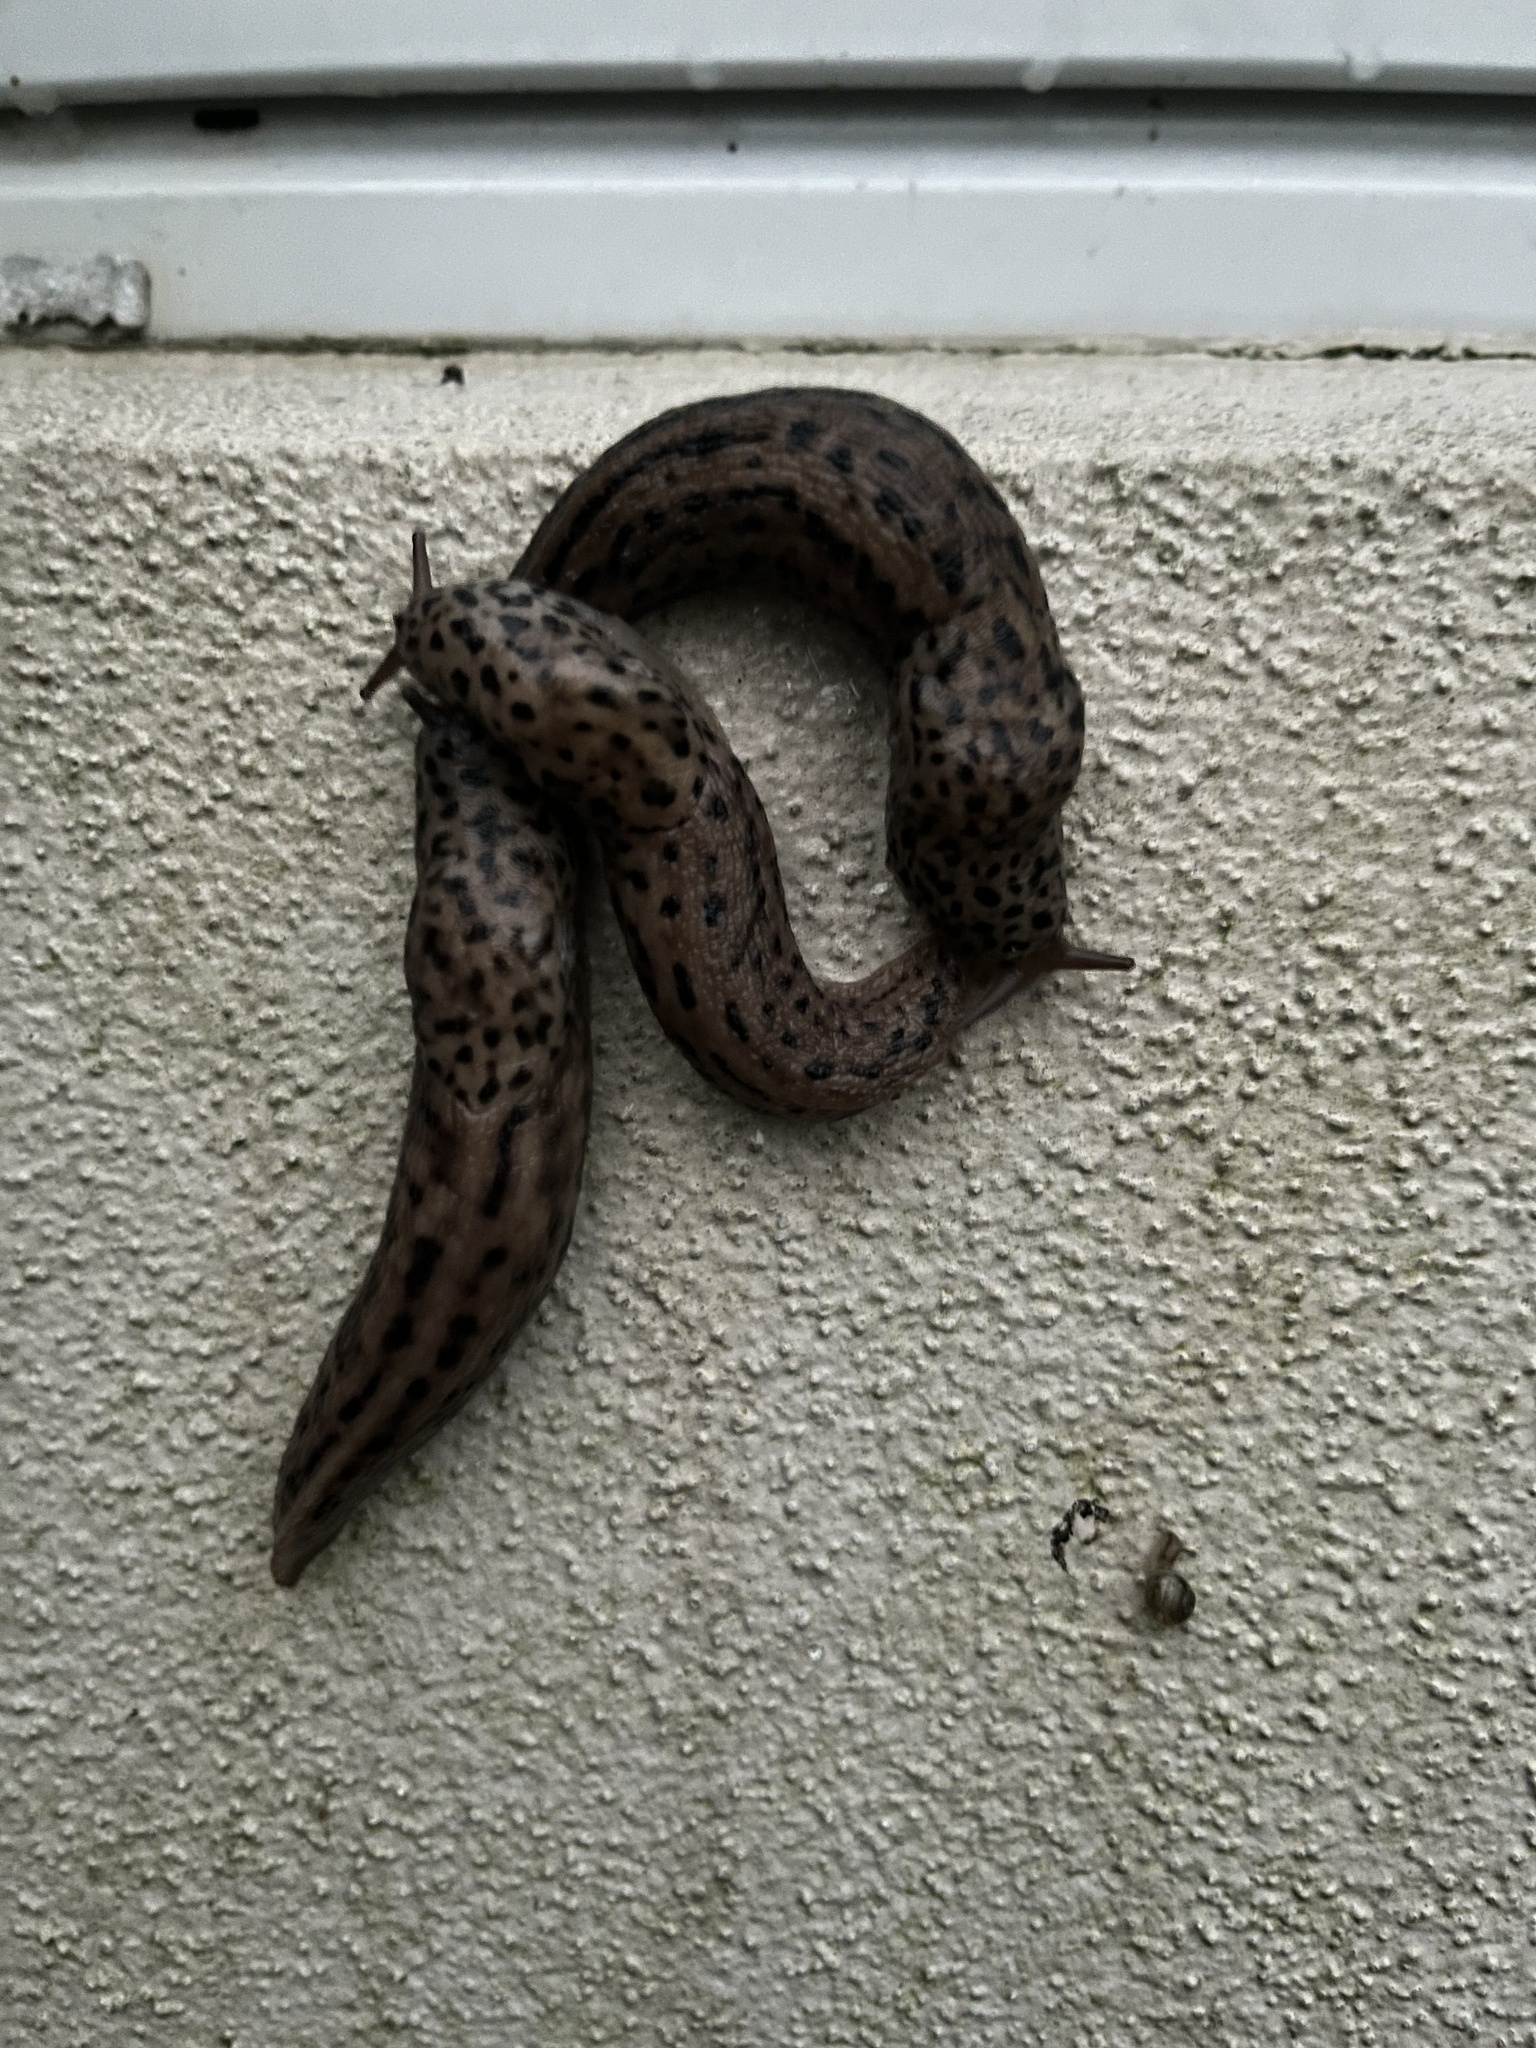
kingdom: Animalia
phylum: Mollusca
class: Gastropoda
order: Stylommatophora
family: Limacidae
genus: Limax
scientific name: Limax maximus
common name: Great grey slug
